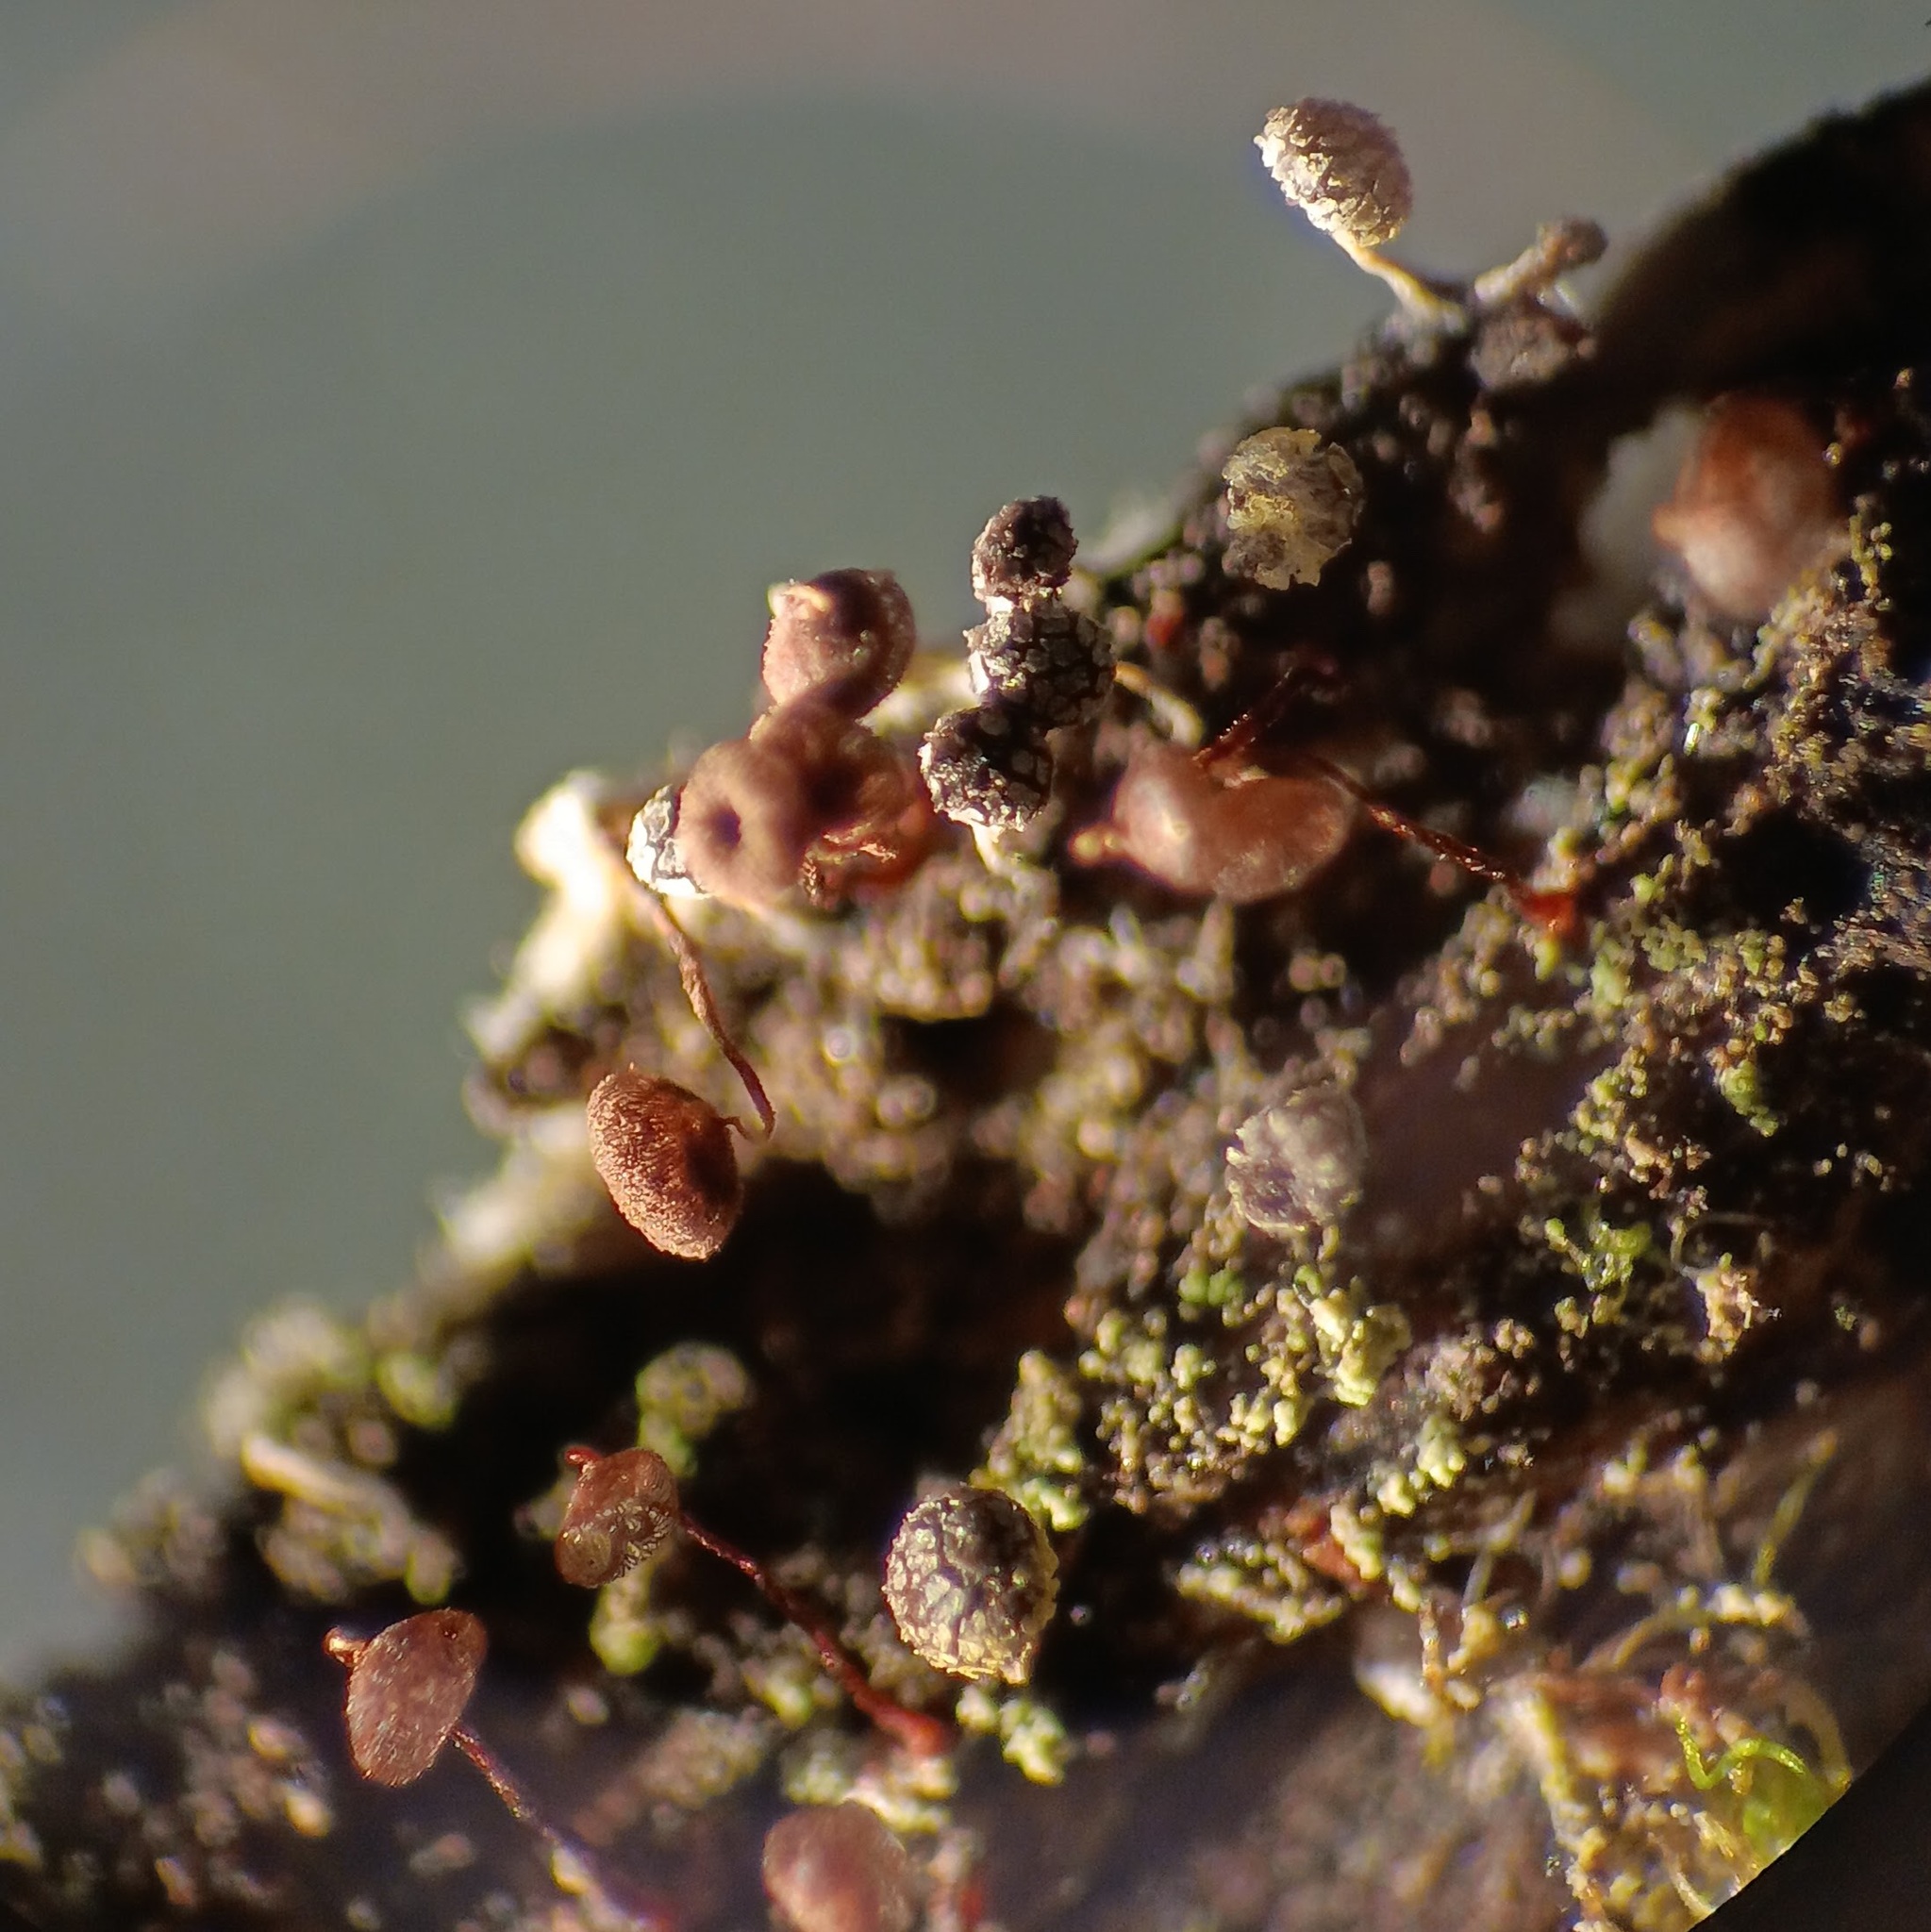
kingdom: Protozoa
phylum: Mycetozoa
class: Myxomycetes
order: Cribrariales
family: Cribrariaceae
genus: Cribraria
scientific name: Cribraria cancellata
